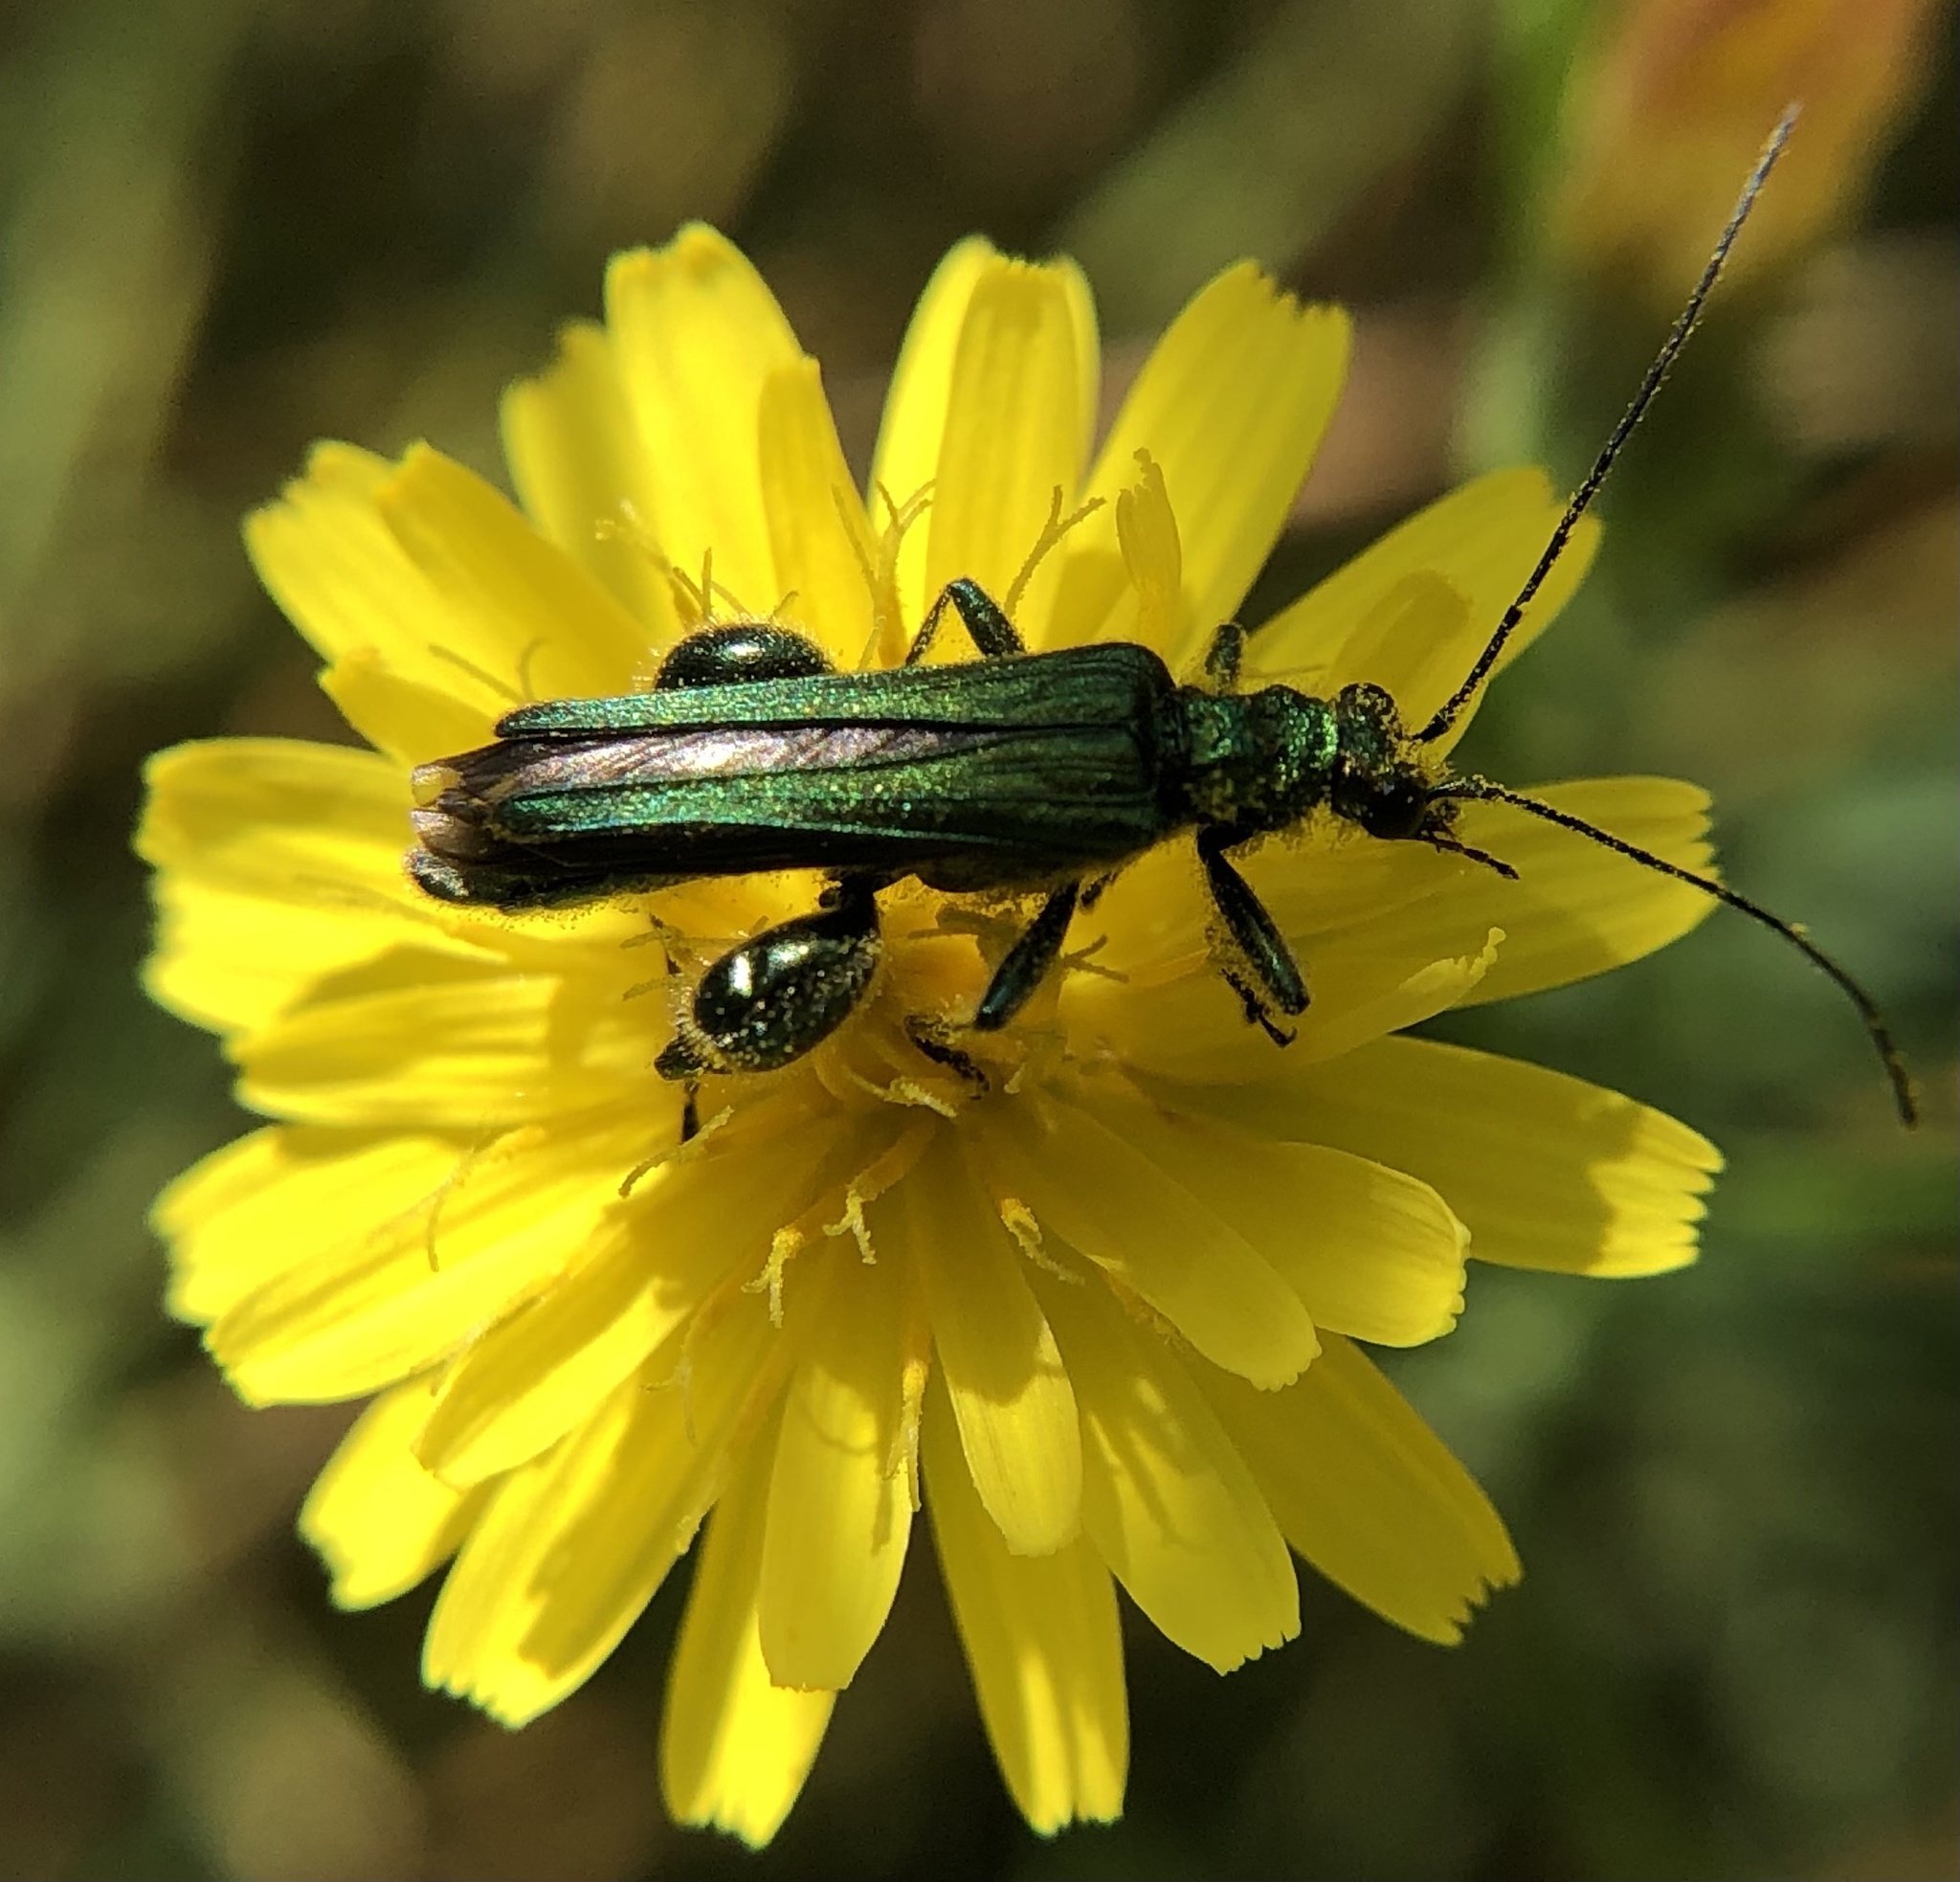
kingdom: Animalia
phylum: Arthropoda
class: Insecta
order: Coleoptera
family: Oedemeridae
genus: Oedemera
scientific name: Oedemera nobilis
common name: Swollen-thighed beetle
